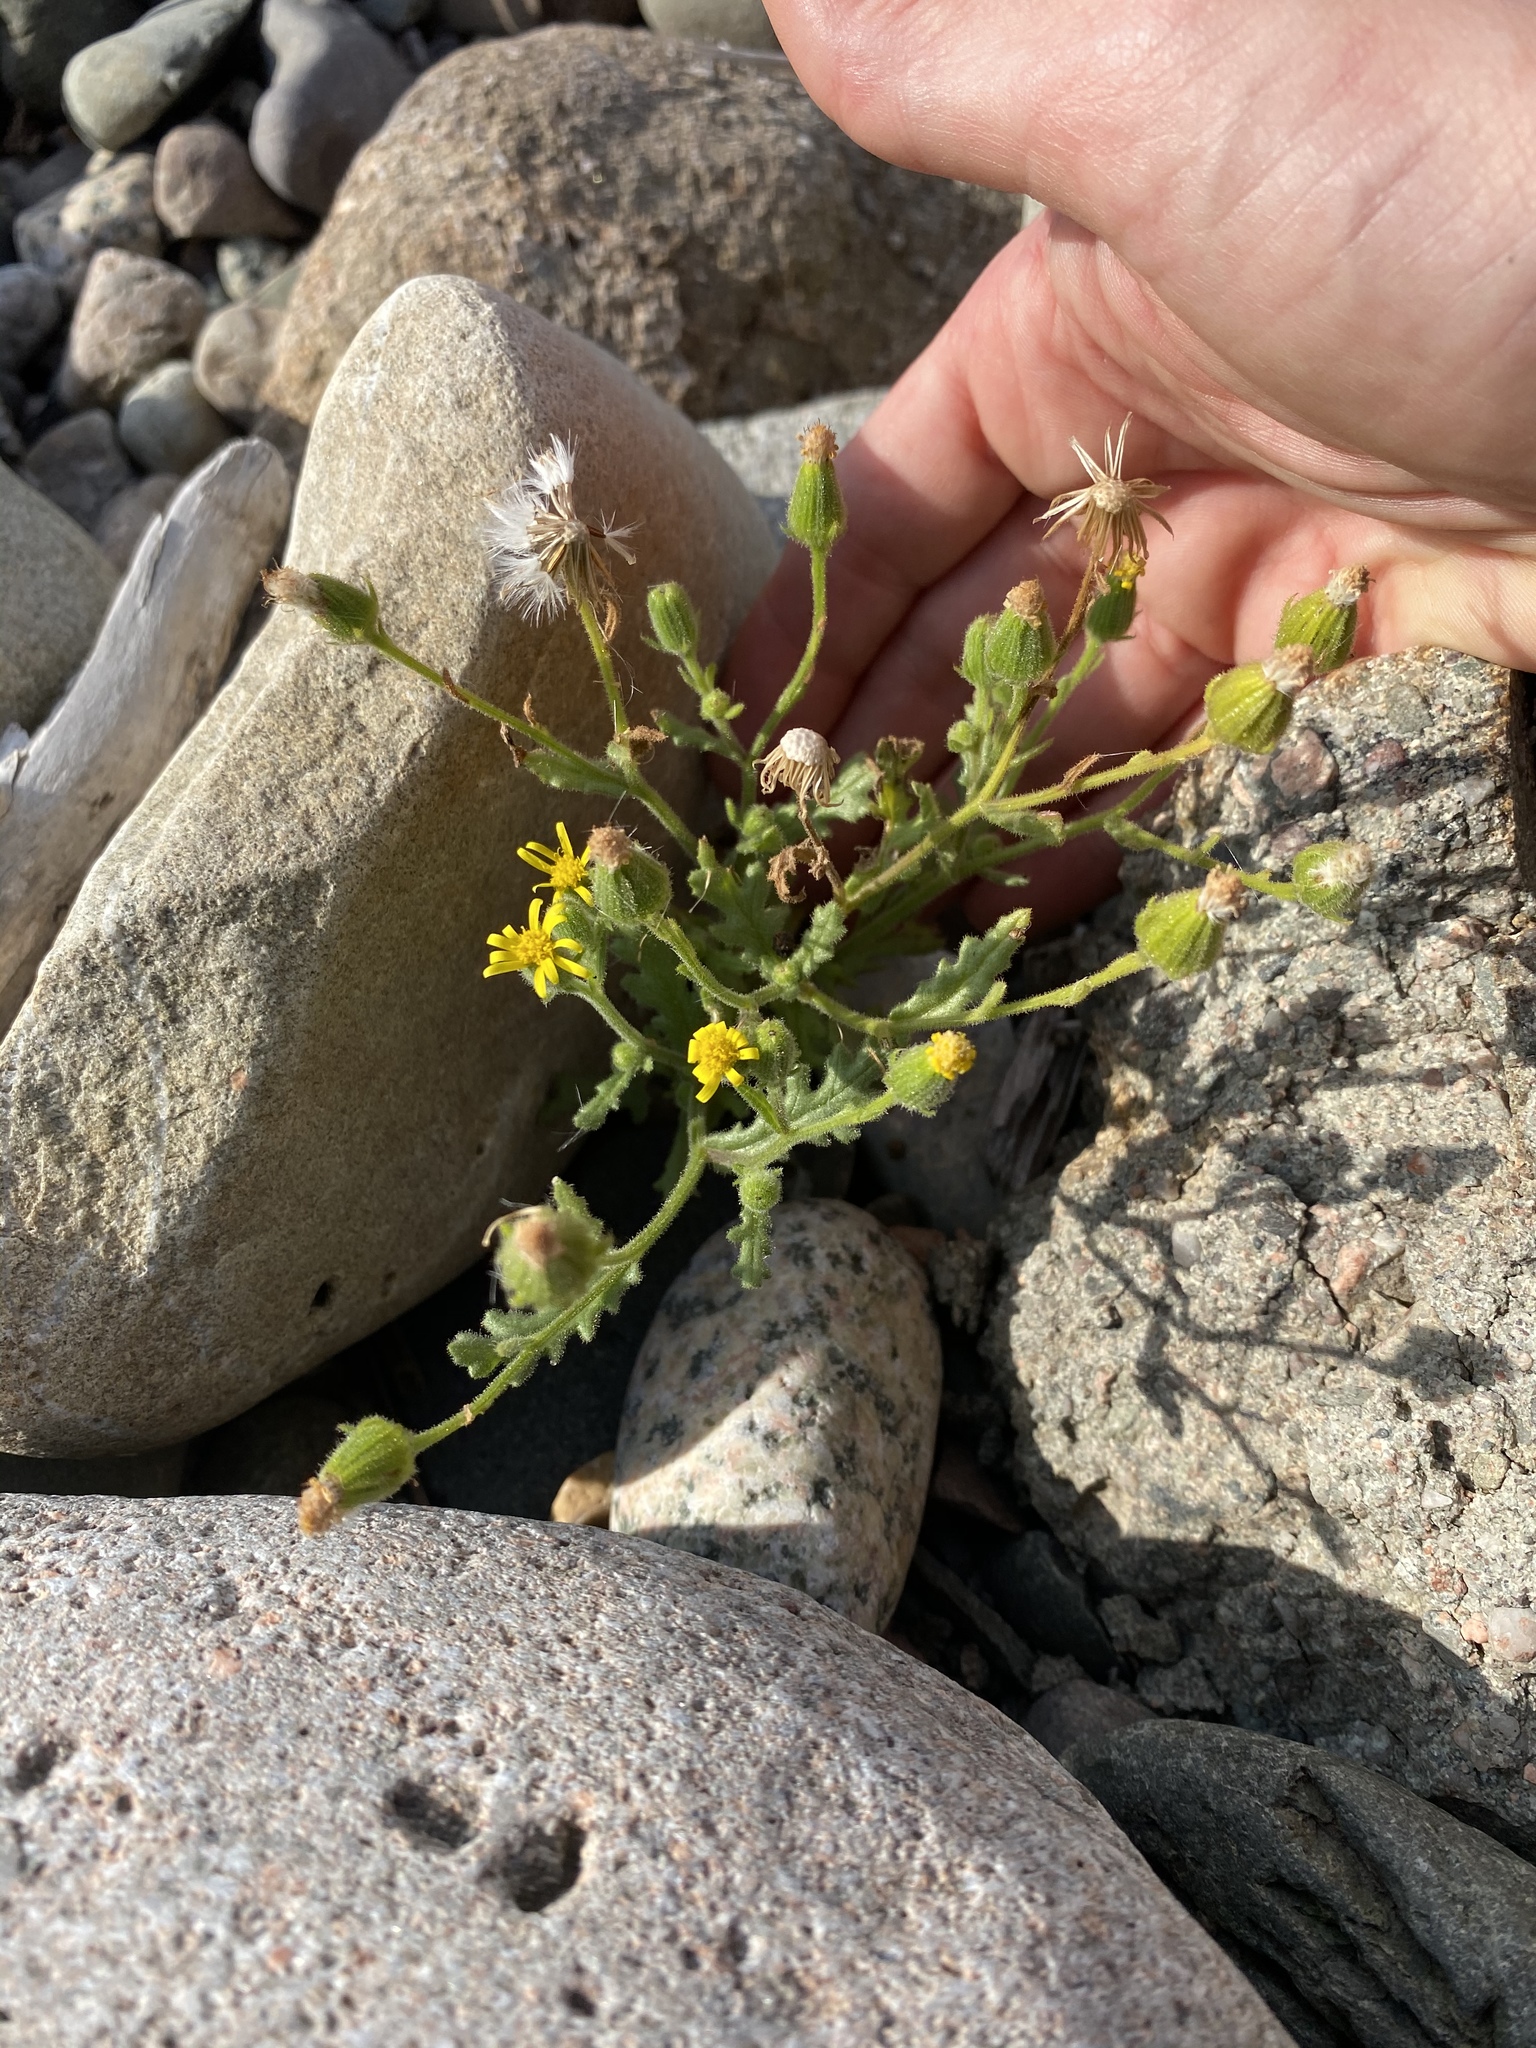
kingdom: Plantae
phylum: Tracheophyta
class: Magnoliopsida
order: Asterales
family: Asteraceae
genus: Senecio
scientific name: Senecio viscosus
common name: Sticky groundsel
